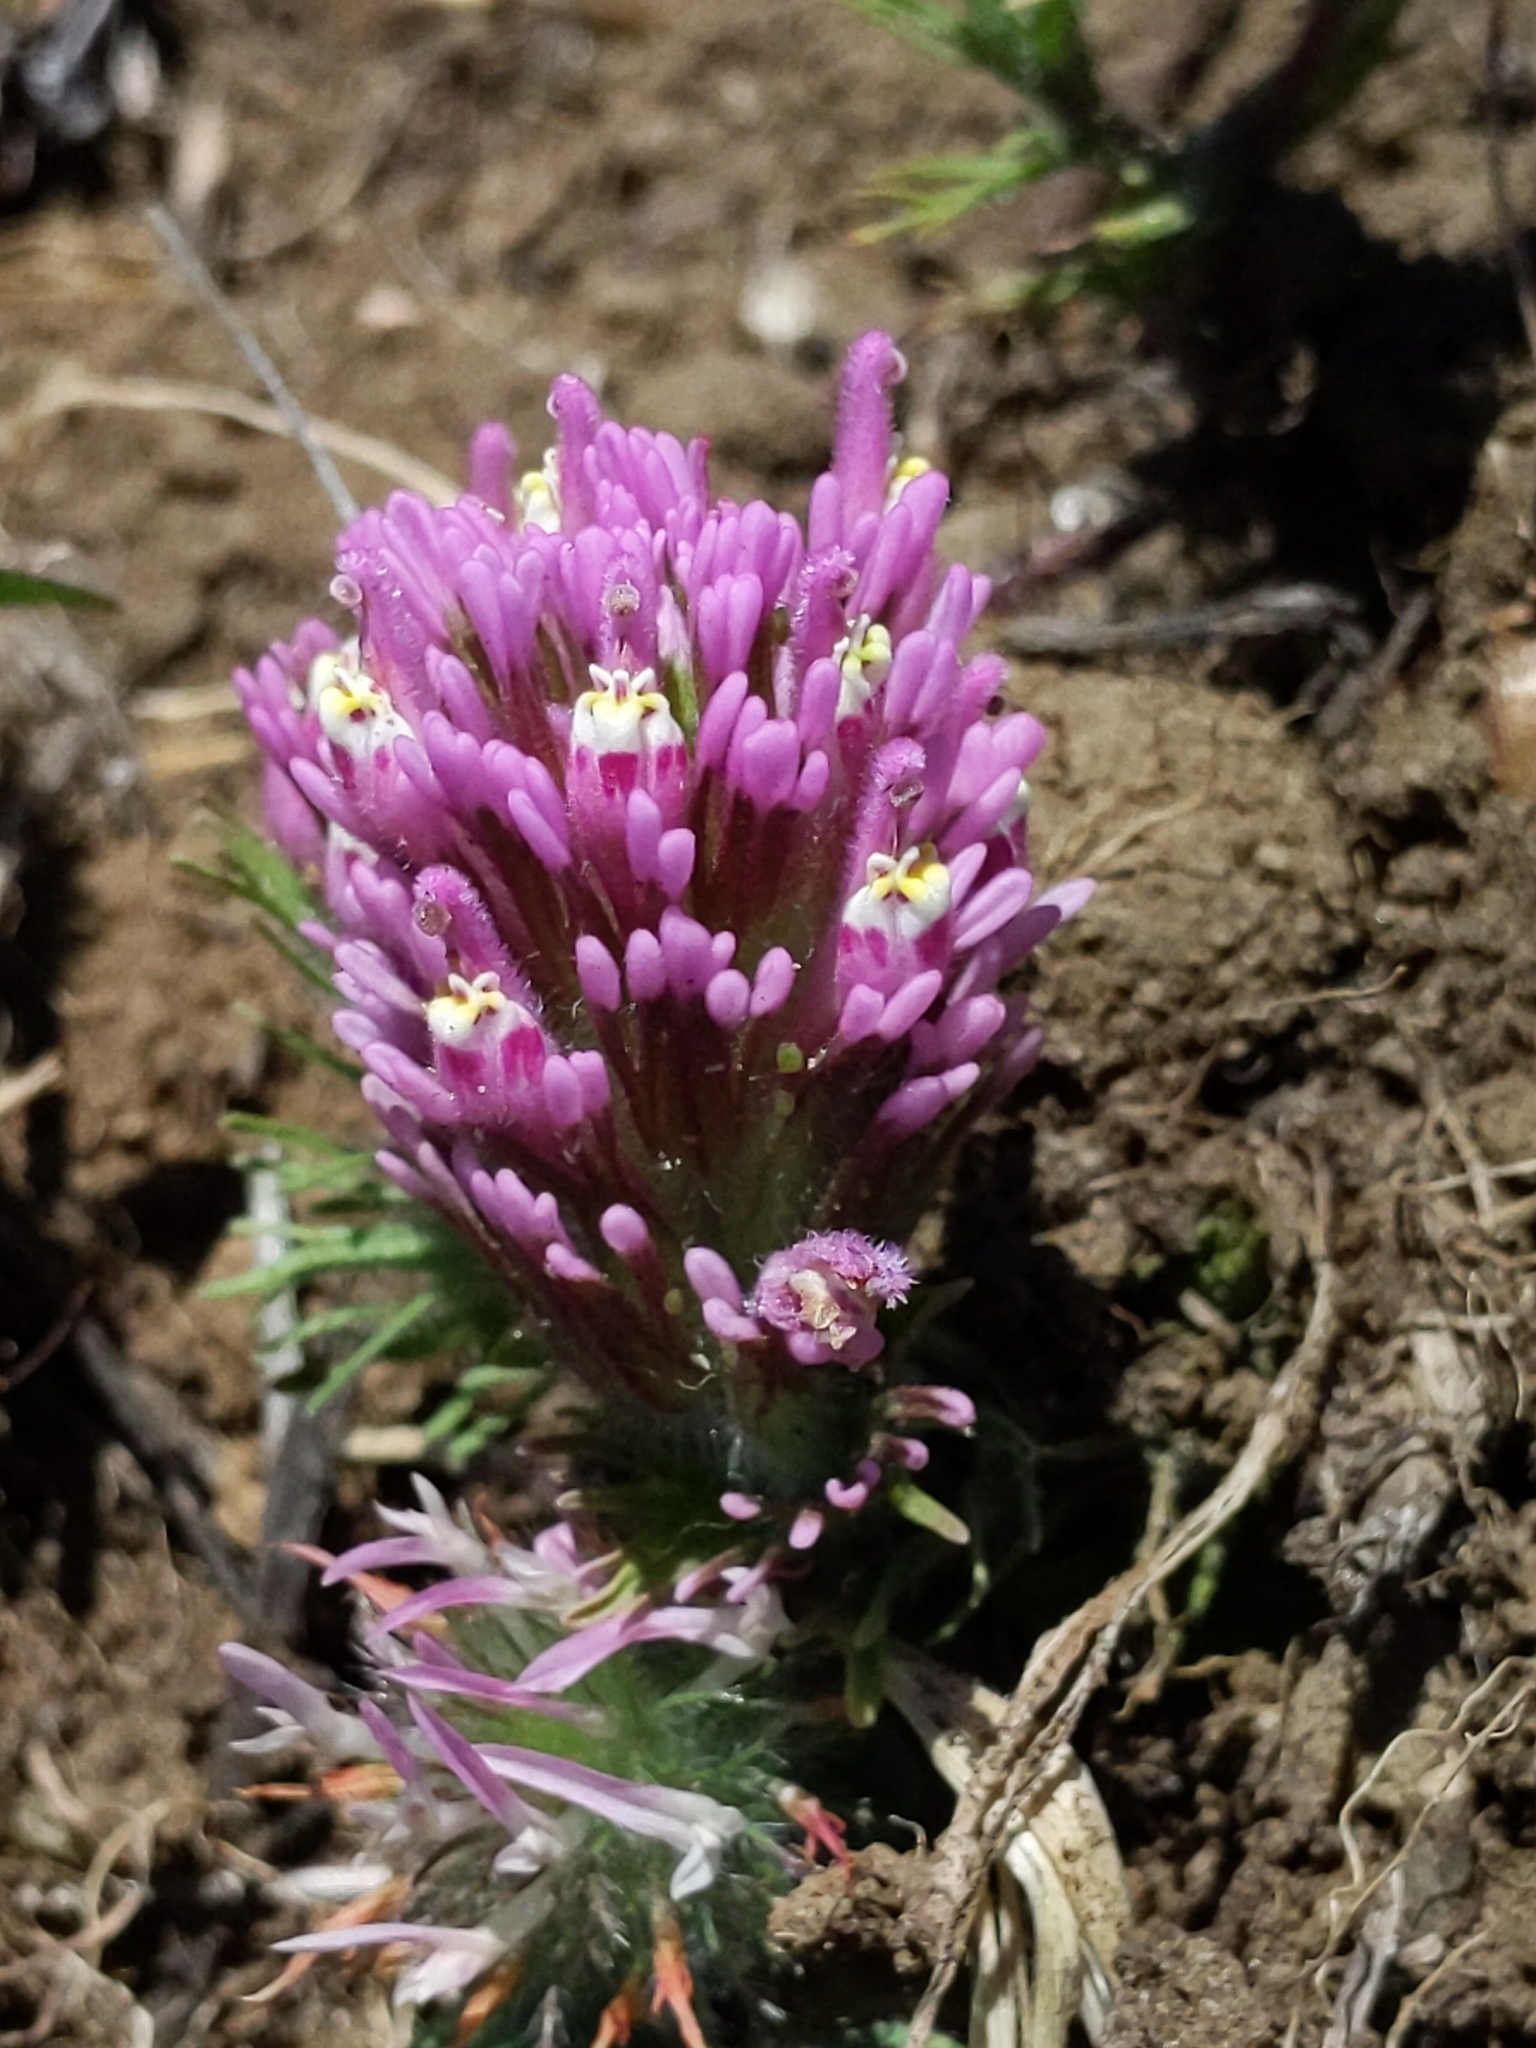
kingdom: Plantae
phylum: Tracheophyta
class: Magnoliopsida
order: Lamiales
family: Orobanchaceae
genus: Castilleja
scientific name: Castilleja exserta
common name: Purple owl-clover
